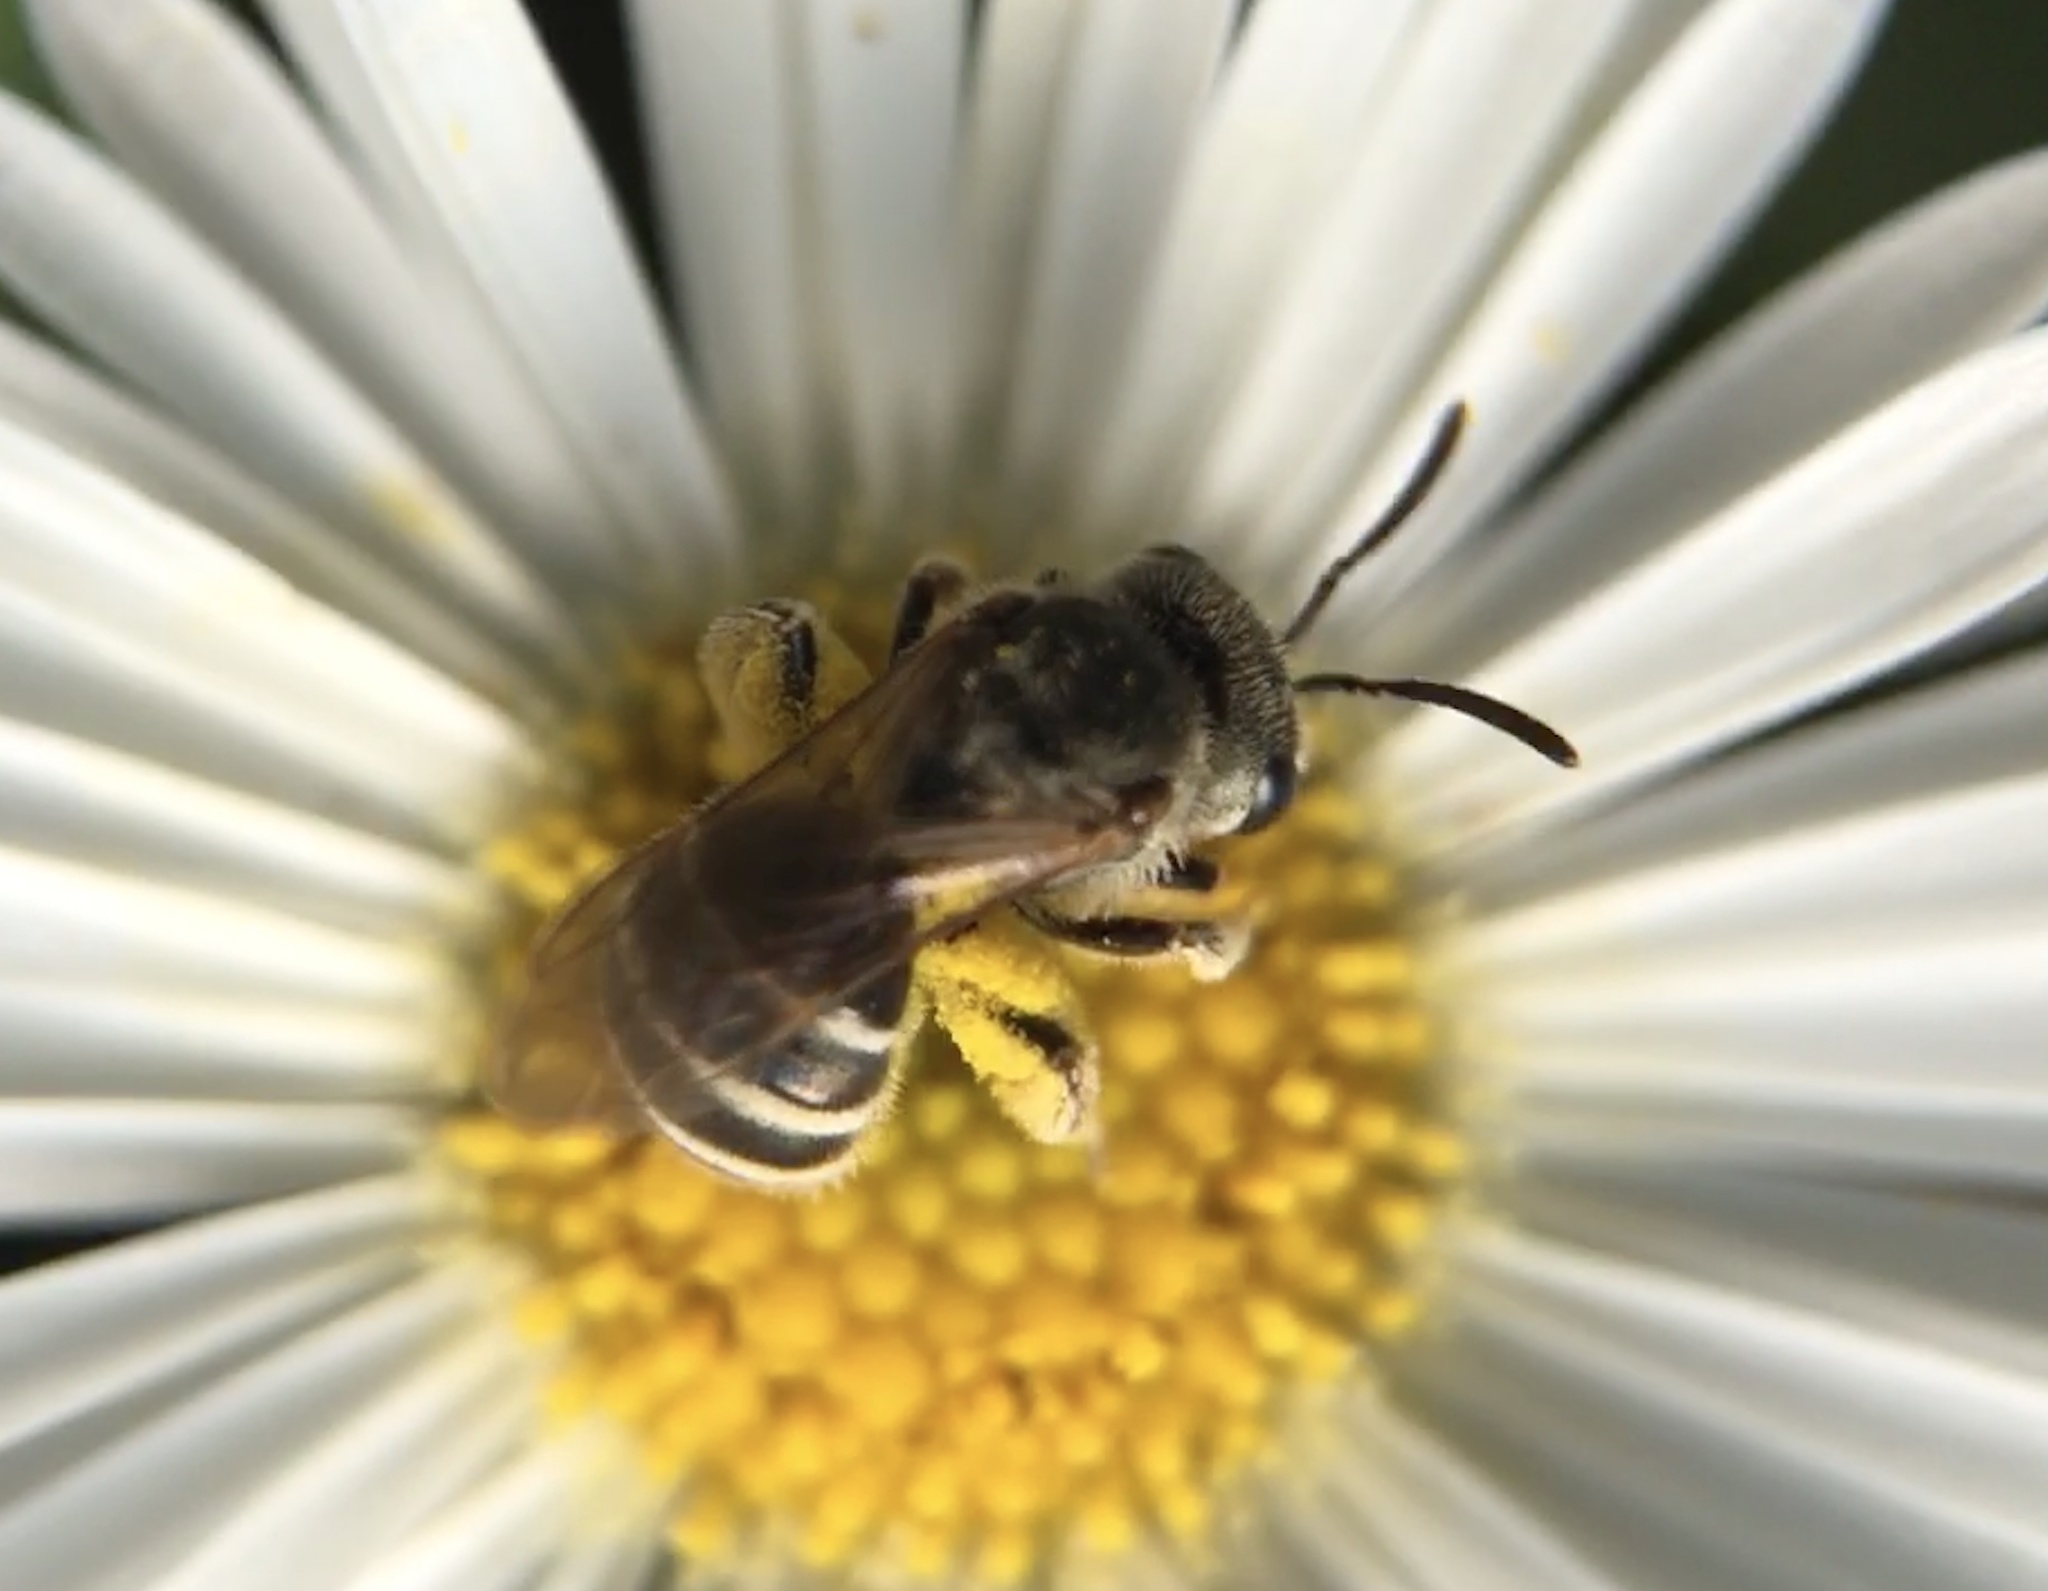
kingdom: Animalia
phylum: Arthropoda
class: Insecta
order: Hymenoptera
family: Halictidae
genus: Halictus
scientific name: Halictus tripartitus
